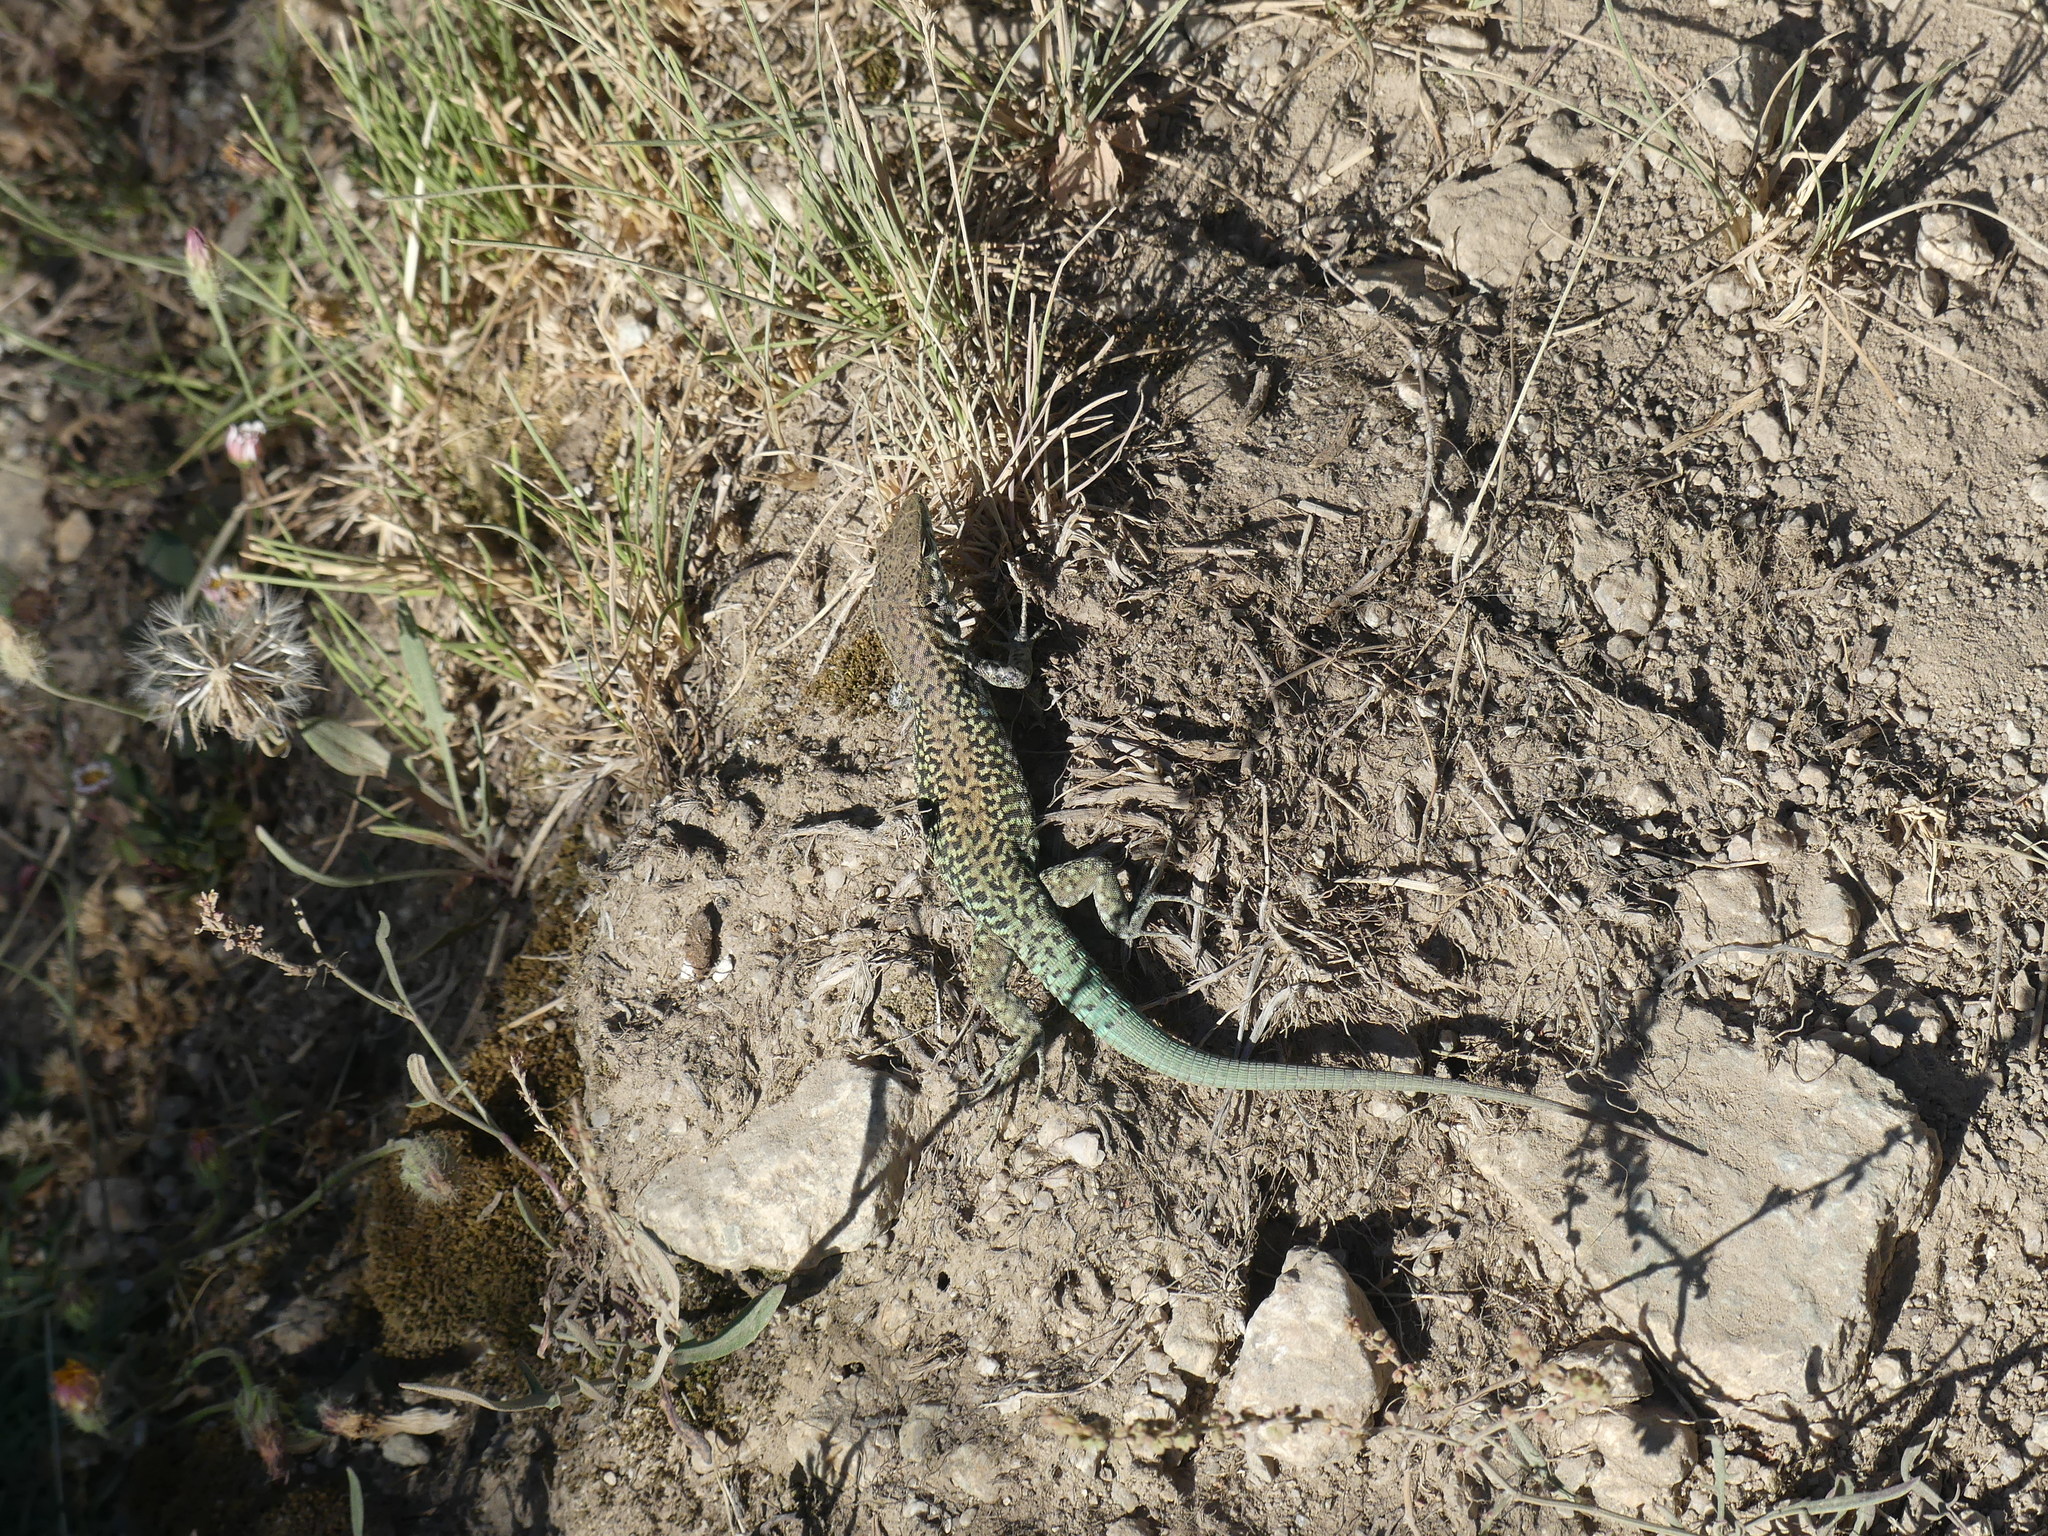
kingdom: Animalia
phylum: Chordata
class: Squamata
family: Lacertidae
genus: Podarcis
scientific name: Podarcis tiliguerta
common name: Tyrrhenian wall lizard
